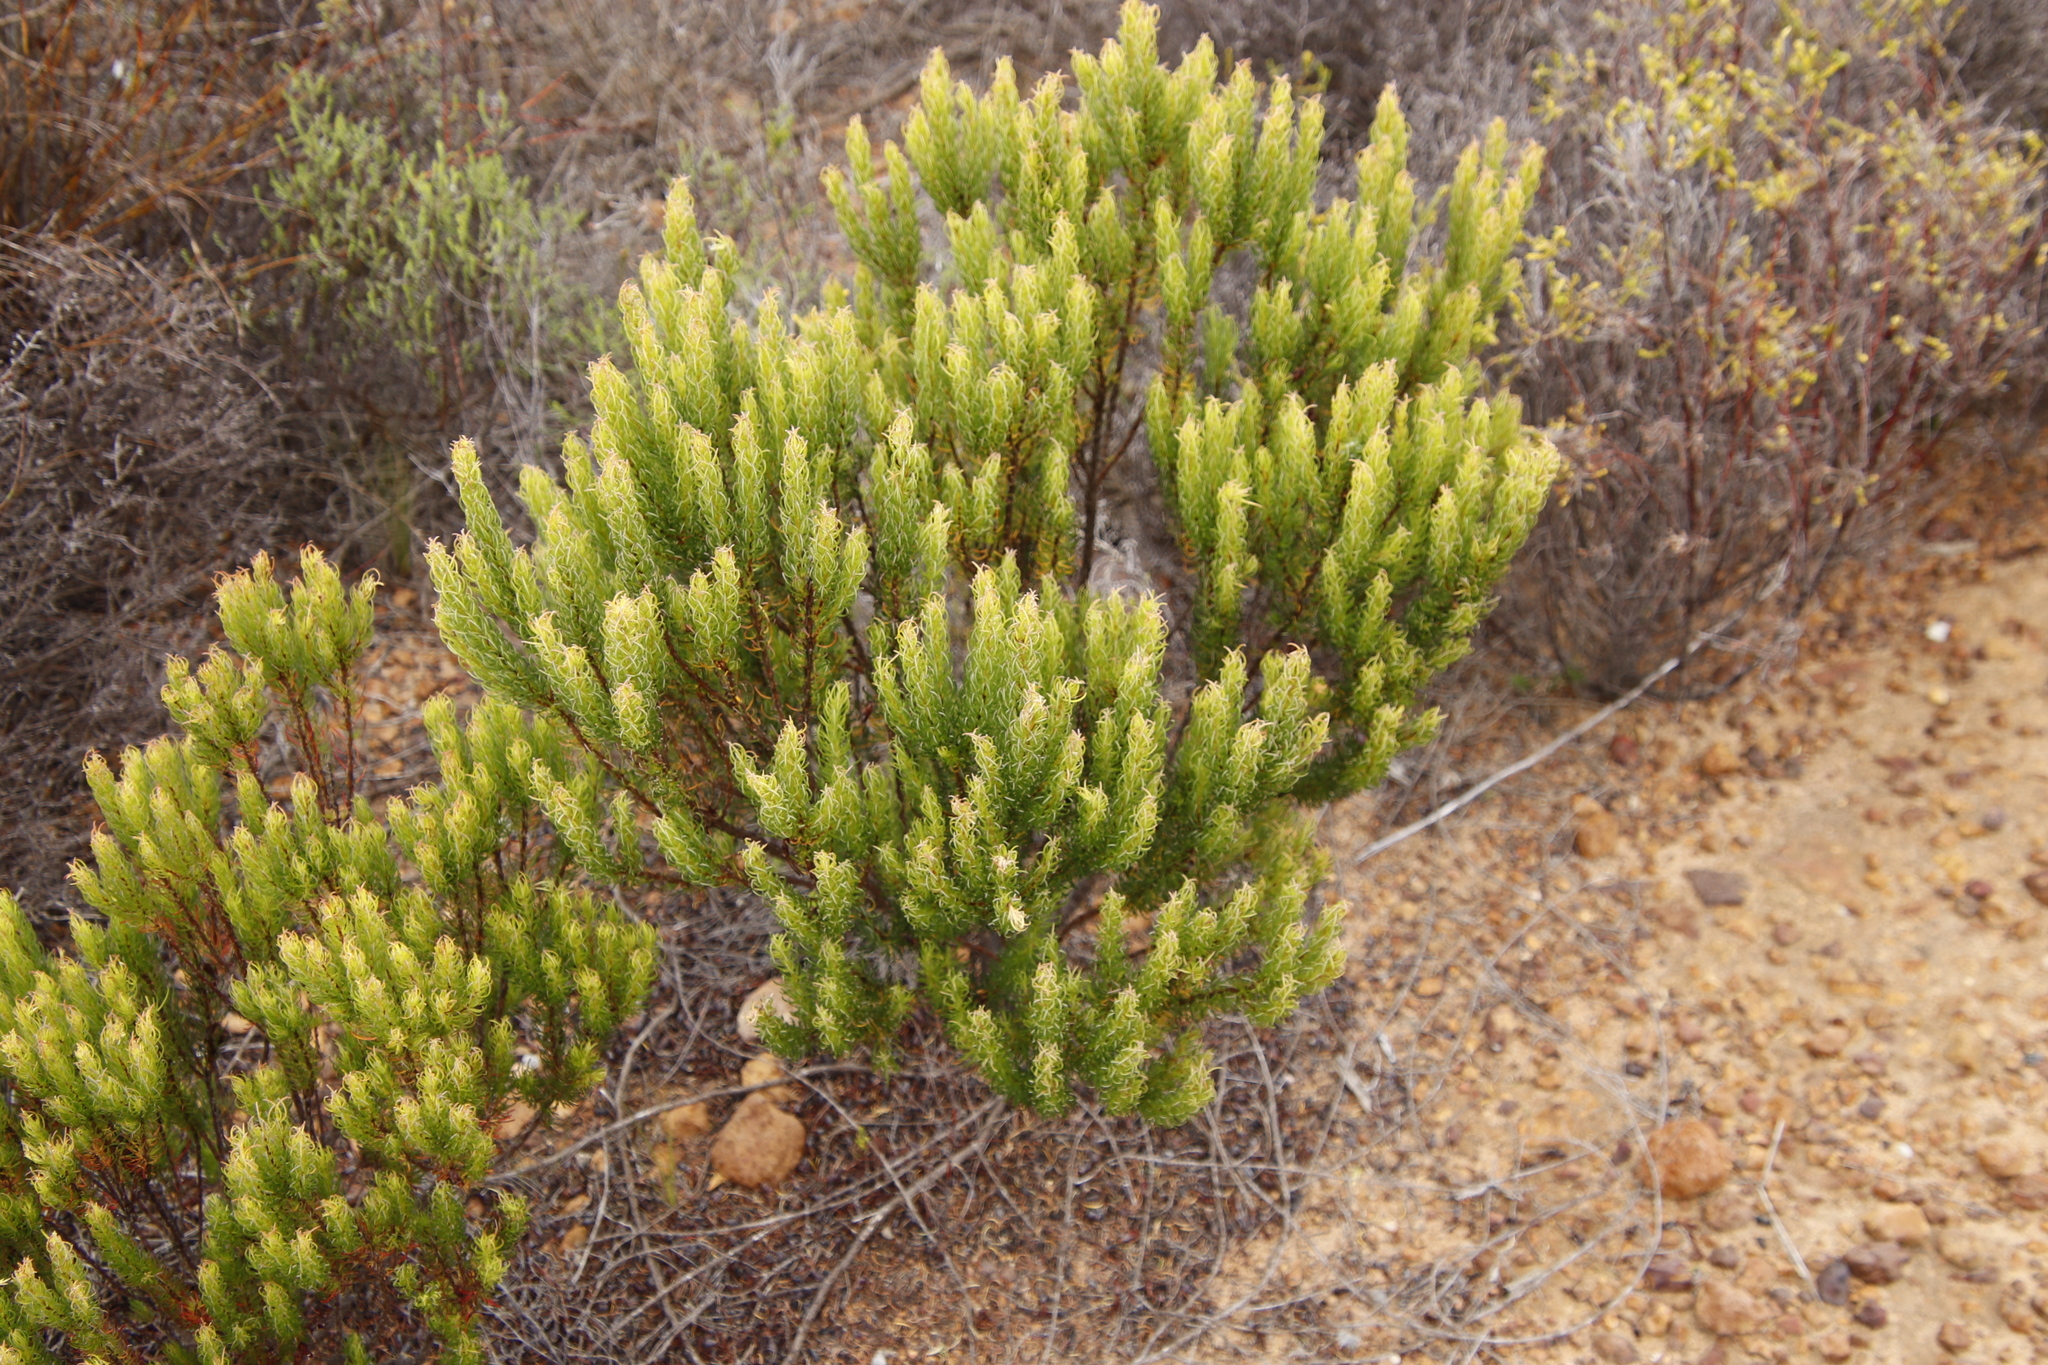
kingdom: Plantae
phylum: Tracheophyta
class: Magnoliopsida
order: Ericales
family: Ericaceae
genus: Erica
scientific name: Erica plukenetii
